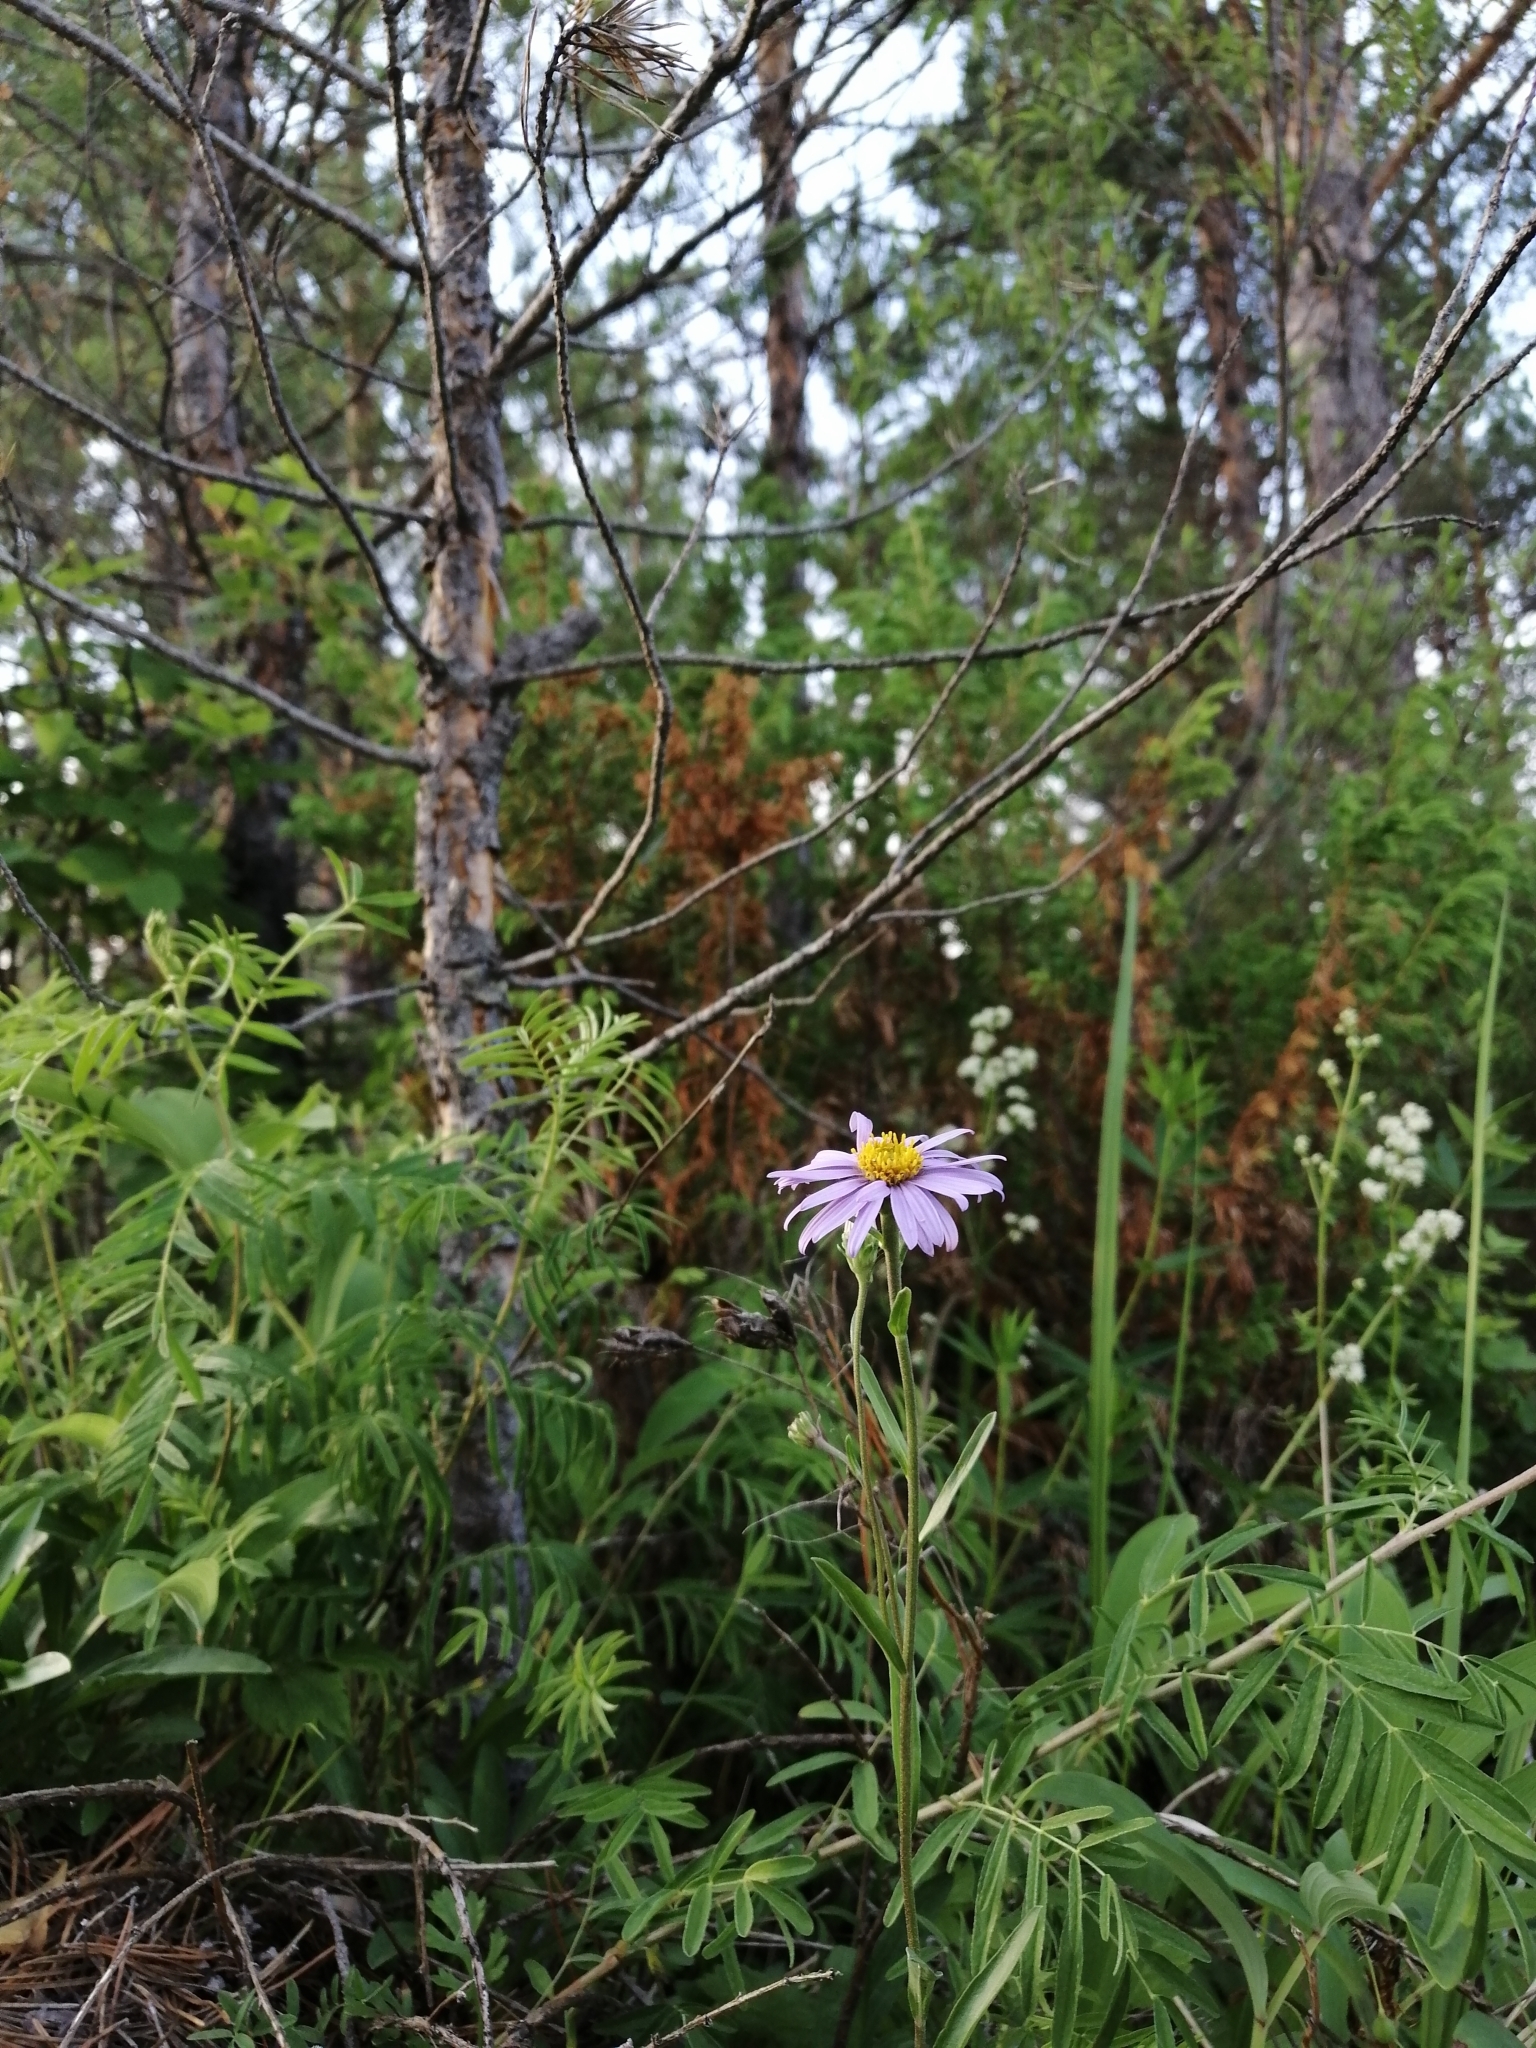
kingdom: Plantae
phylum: Tracheophyta
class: Magnoliopsida
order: Asterales
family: Asteraceae
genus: Aster
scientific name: Aster alpinus
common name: Alpine aster
